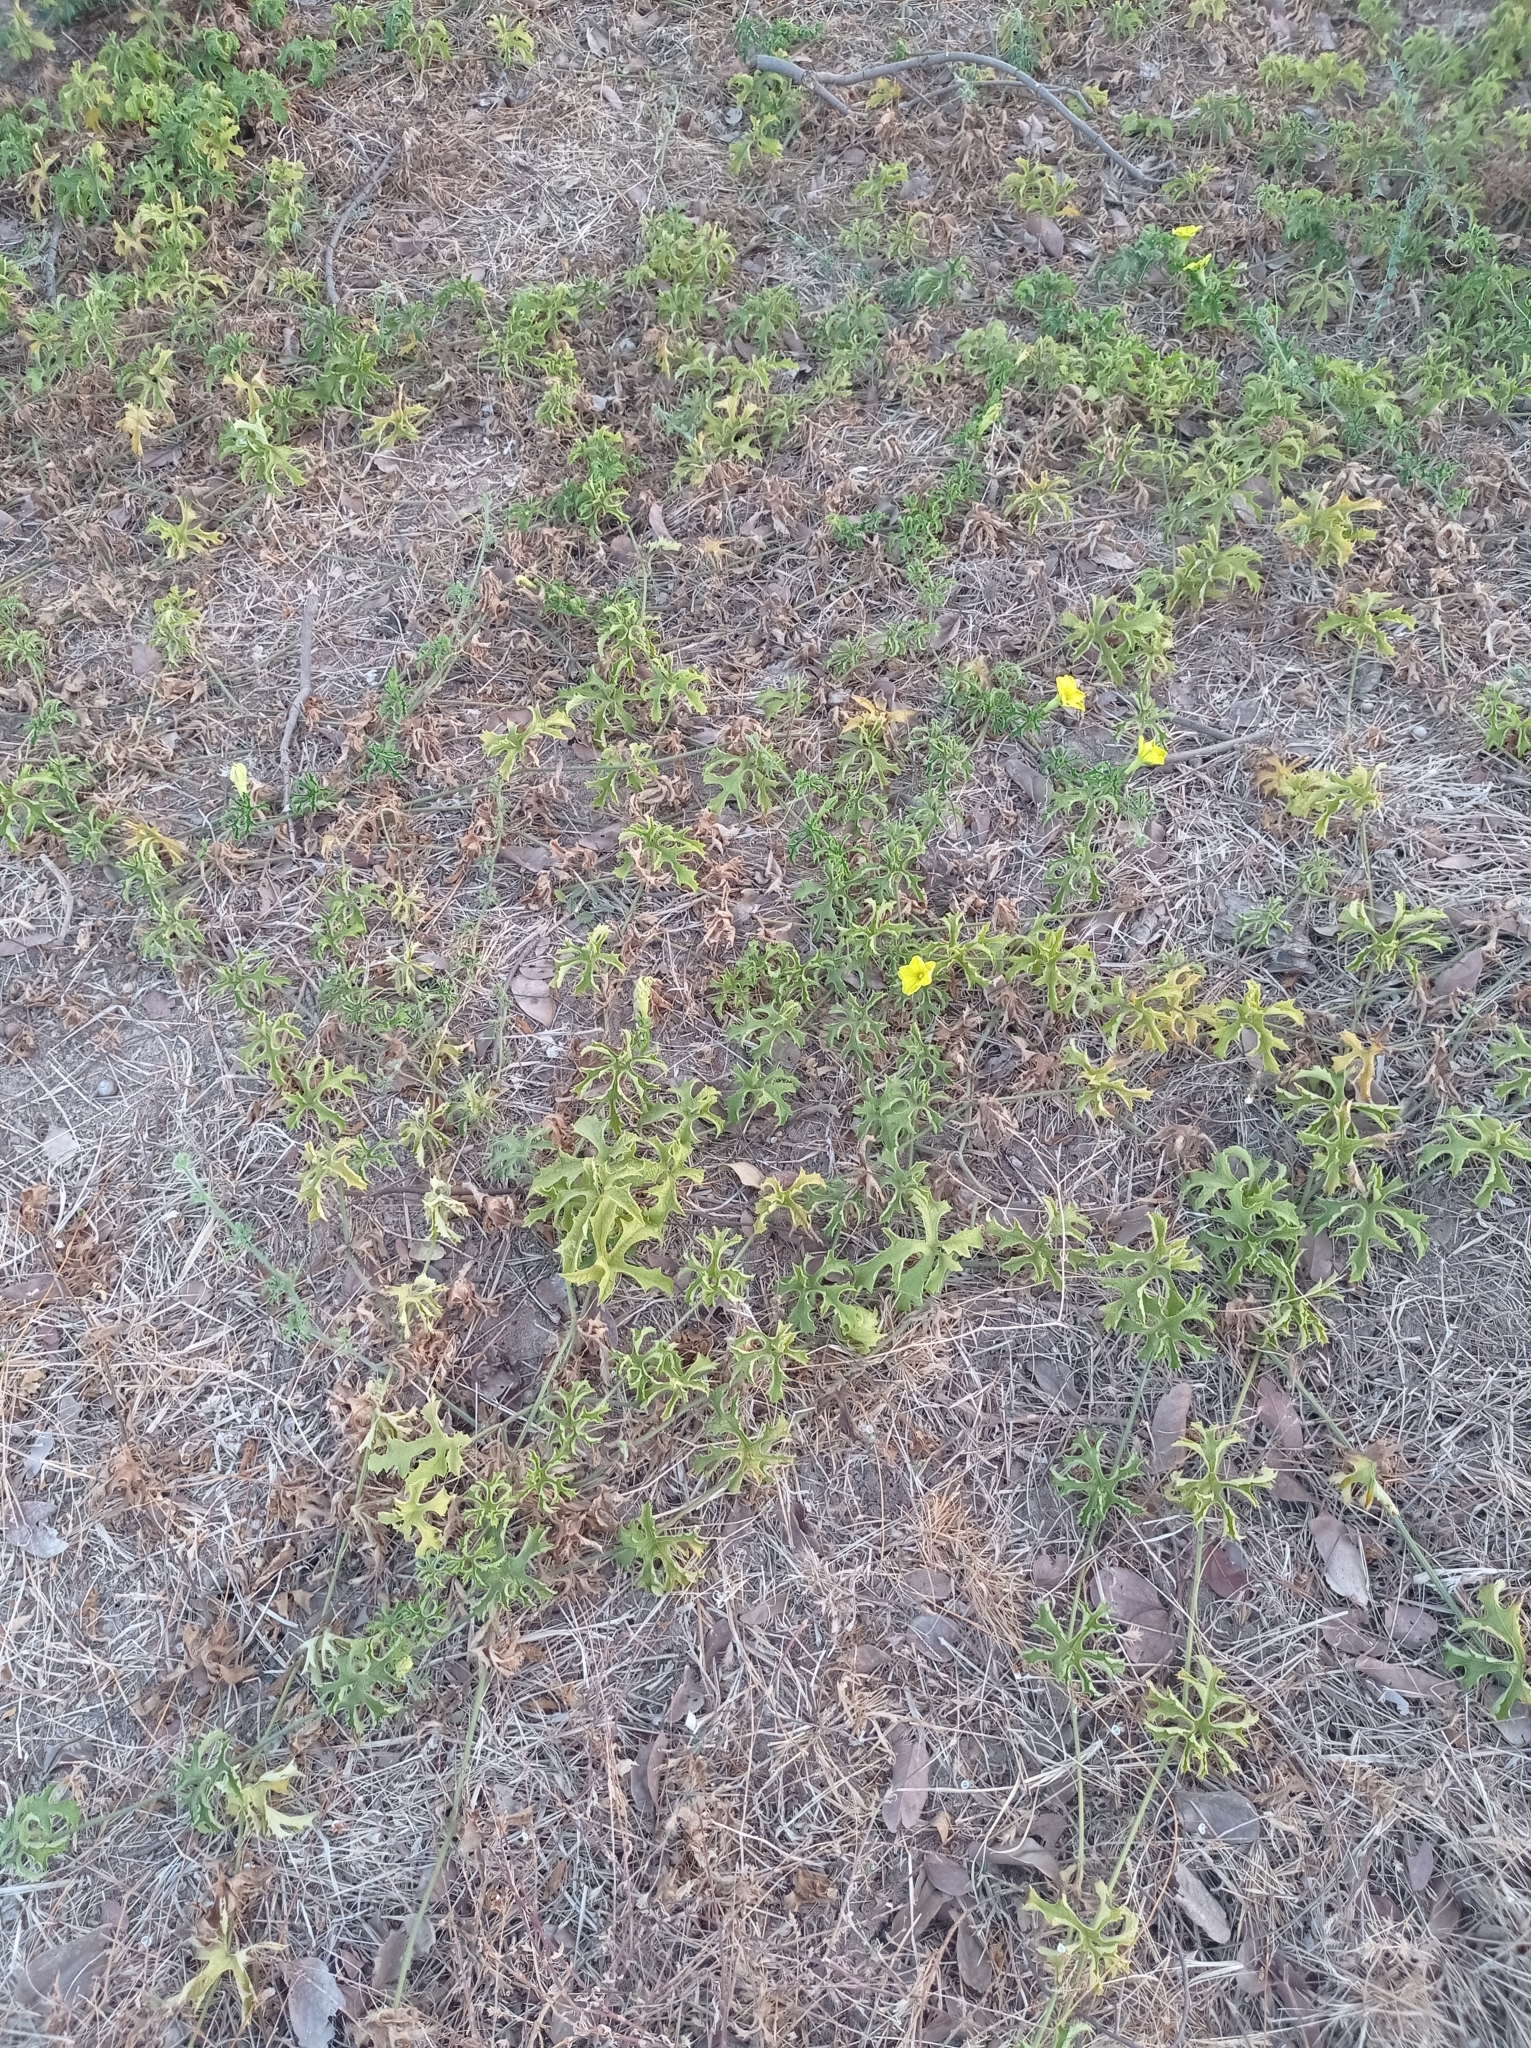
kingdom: Plantae
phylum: Tracheophyta
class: Magnoliopsida
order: Cucurbitales
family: Cucurbitaceae
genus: Peponium
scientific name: Peponium vogelii
